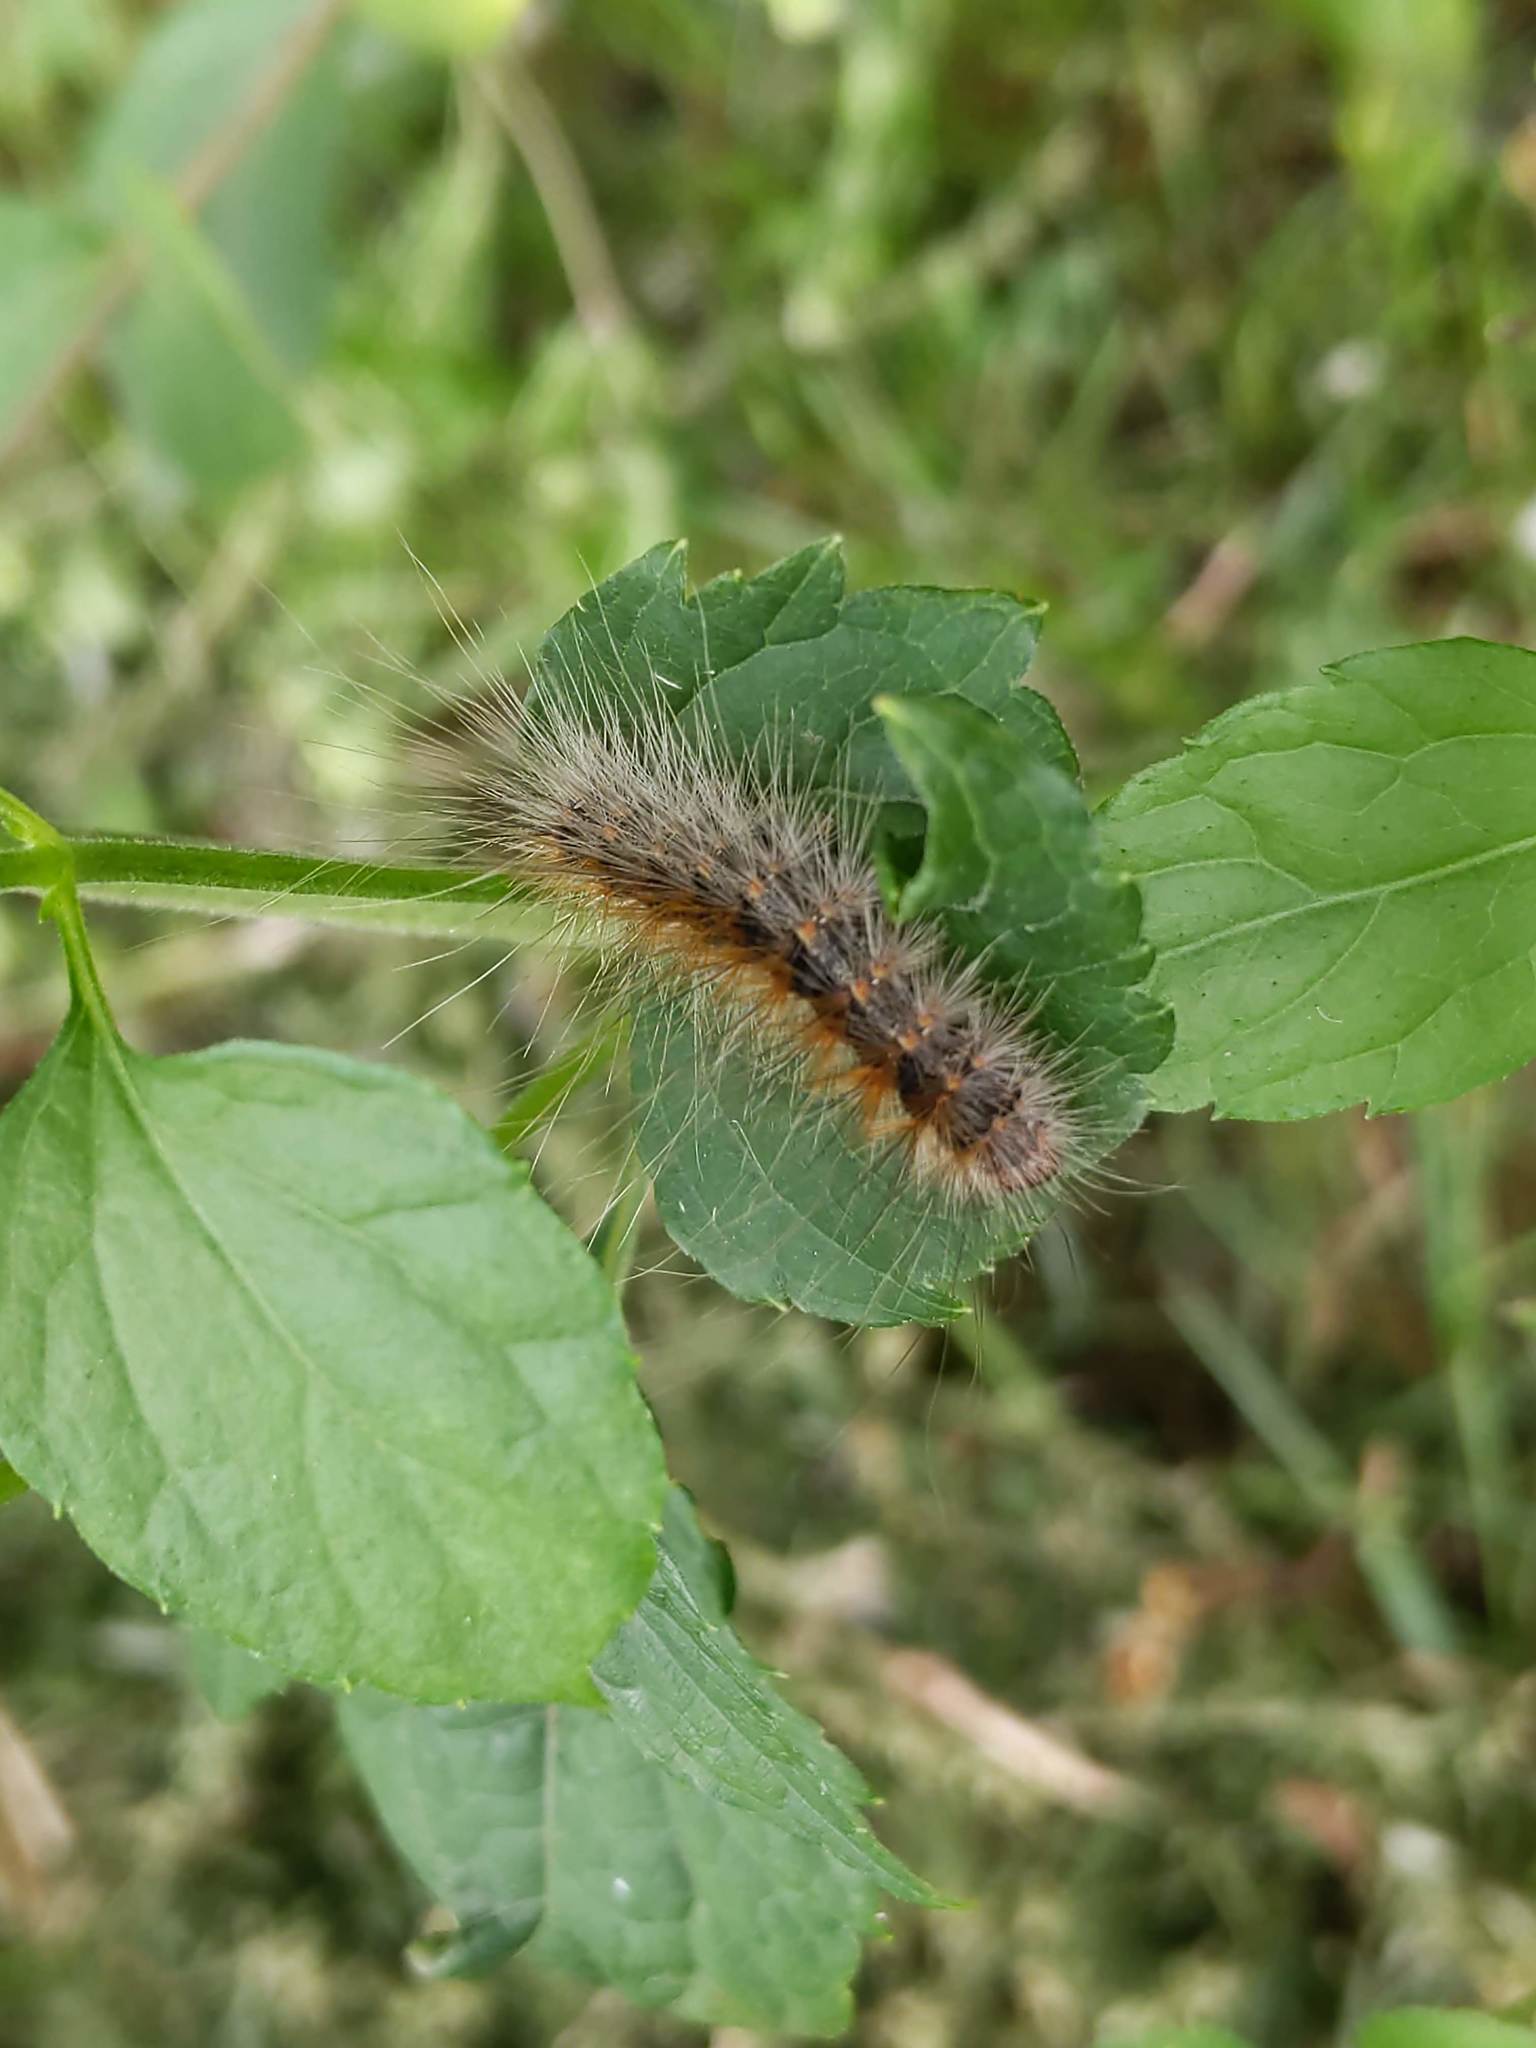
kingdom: Animalia
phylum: Arthropoda
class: Insecta
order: Lepidoptera
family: Erebidae
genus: Hyphantria
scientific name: Hyphantria cunea
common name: American white moth
